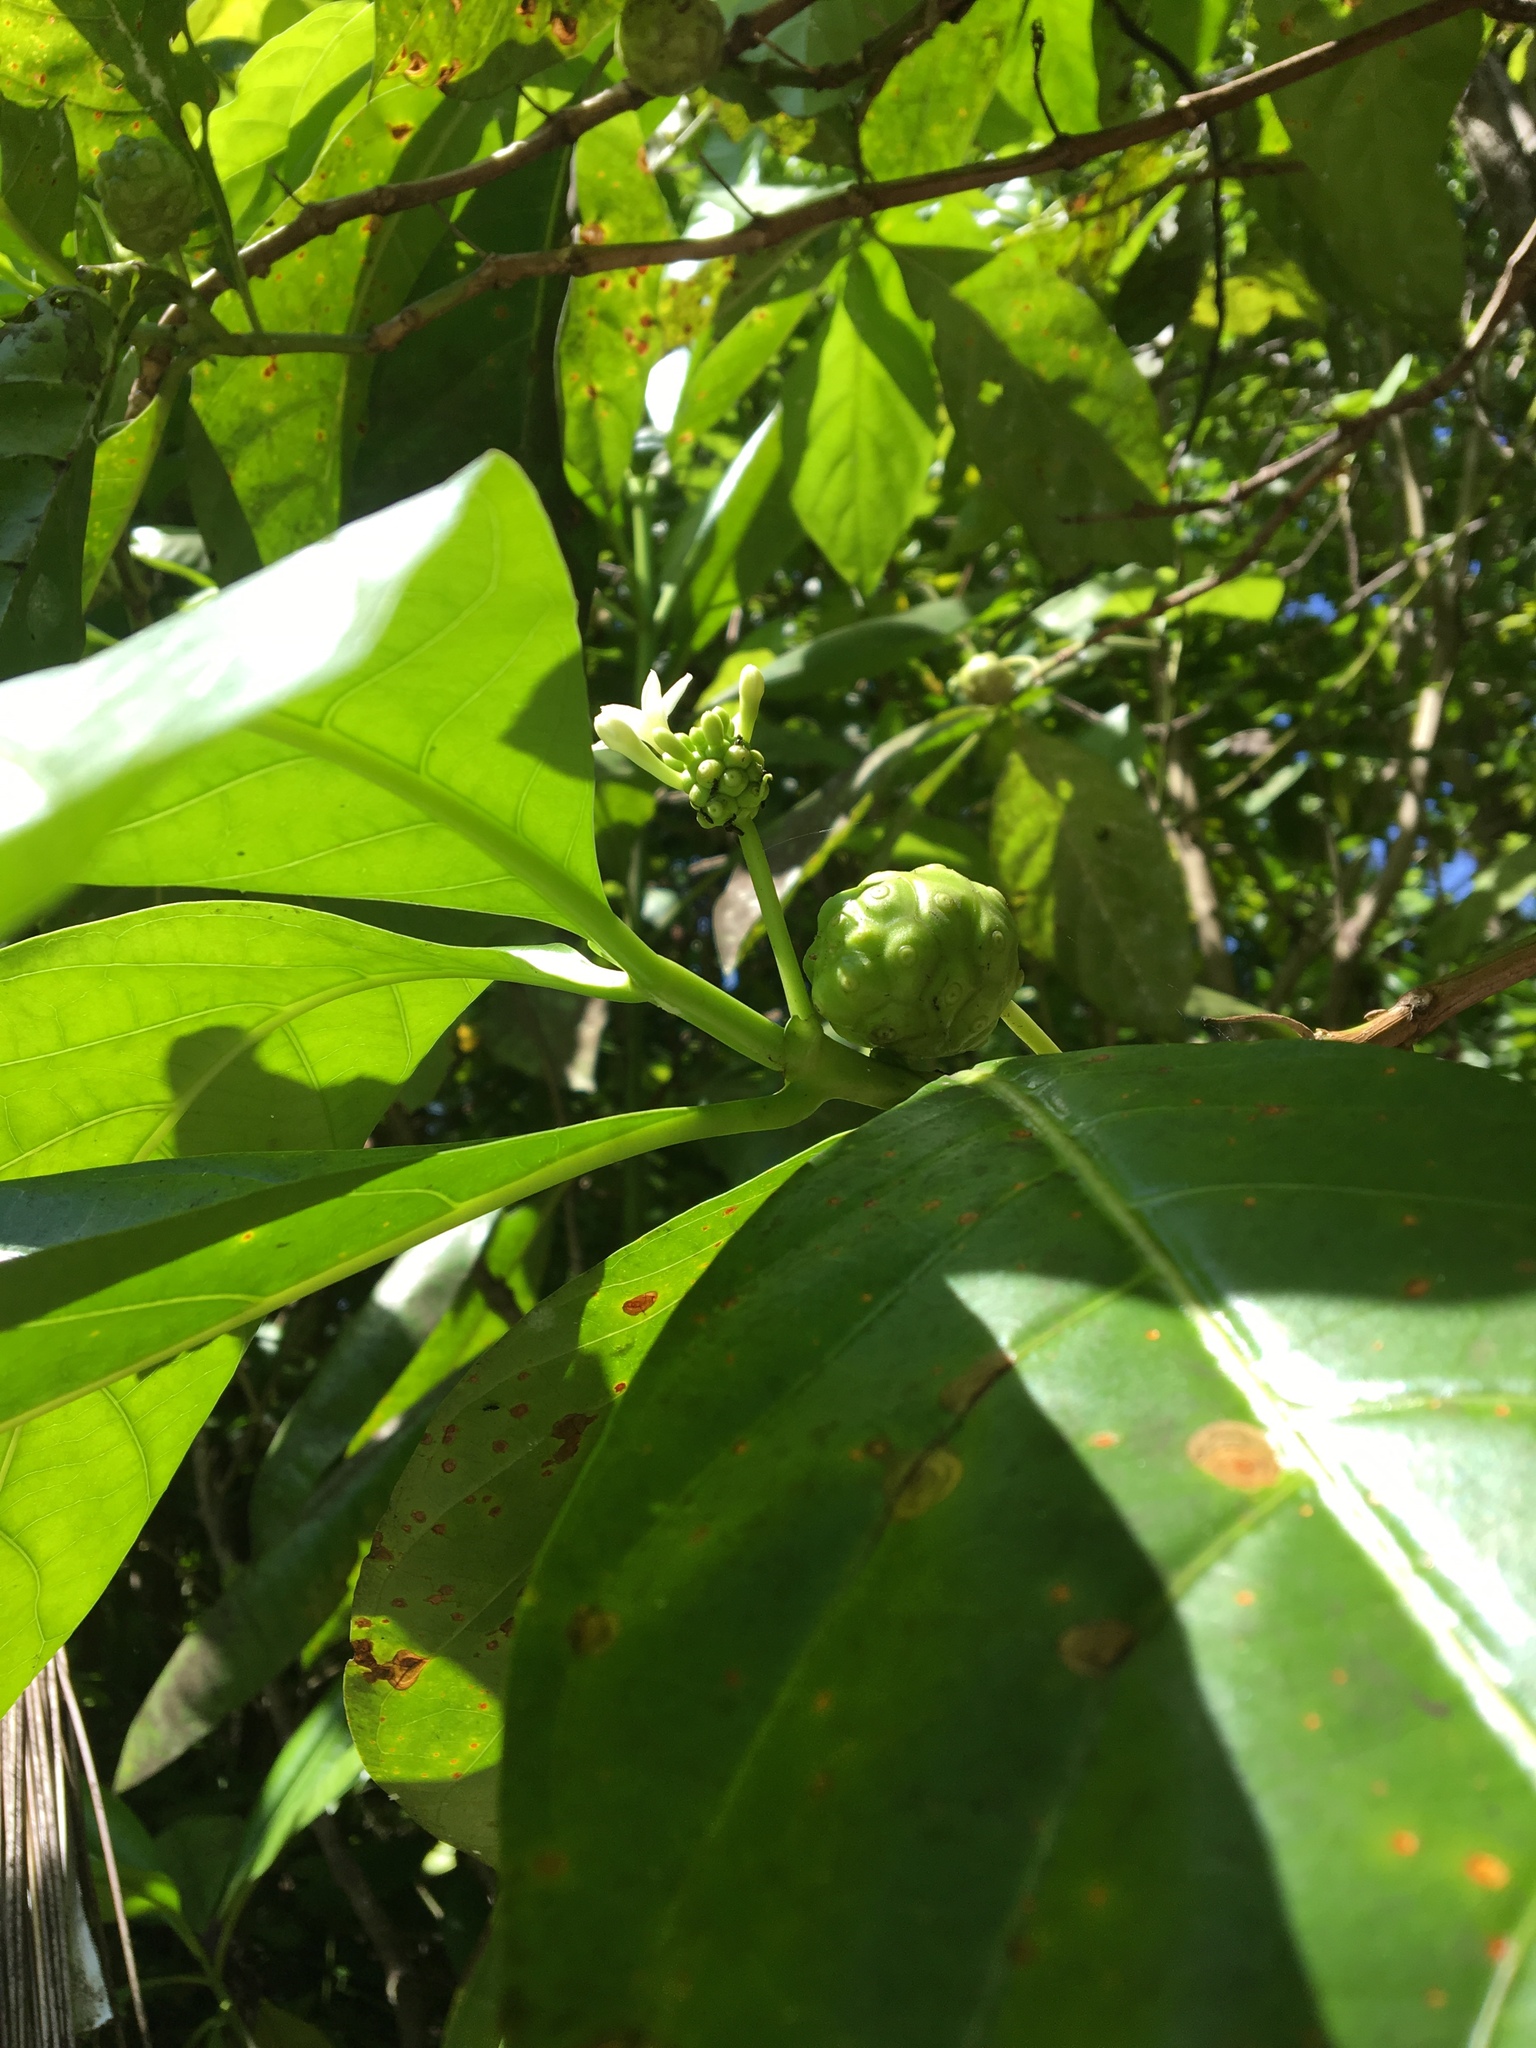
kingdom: Plantae
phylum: Tracheophyta
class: Magnoliopsida
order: Gentianales
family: Rubiaceae
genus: Morinda
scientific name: Morinda citrifolia
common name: Indian-mulberry
